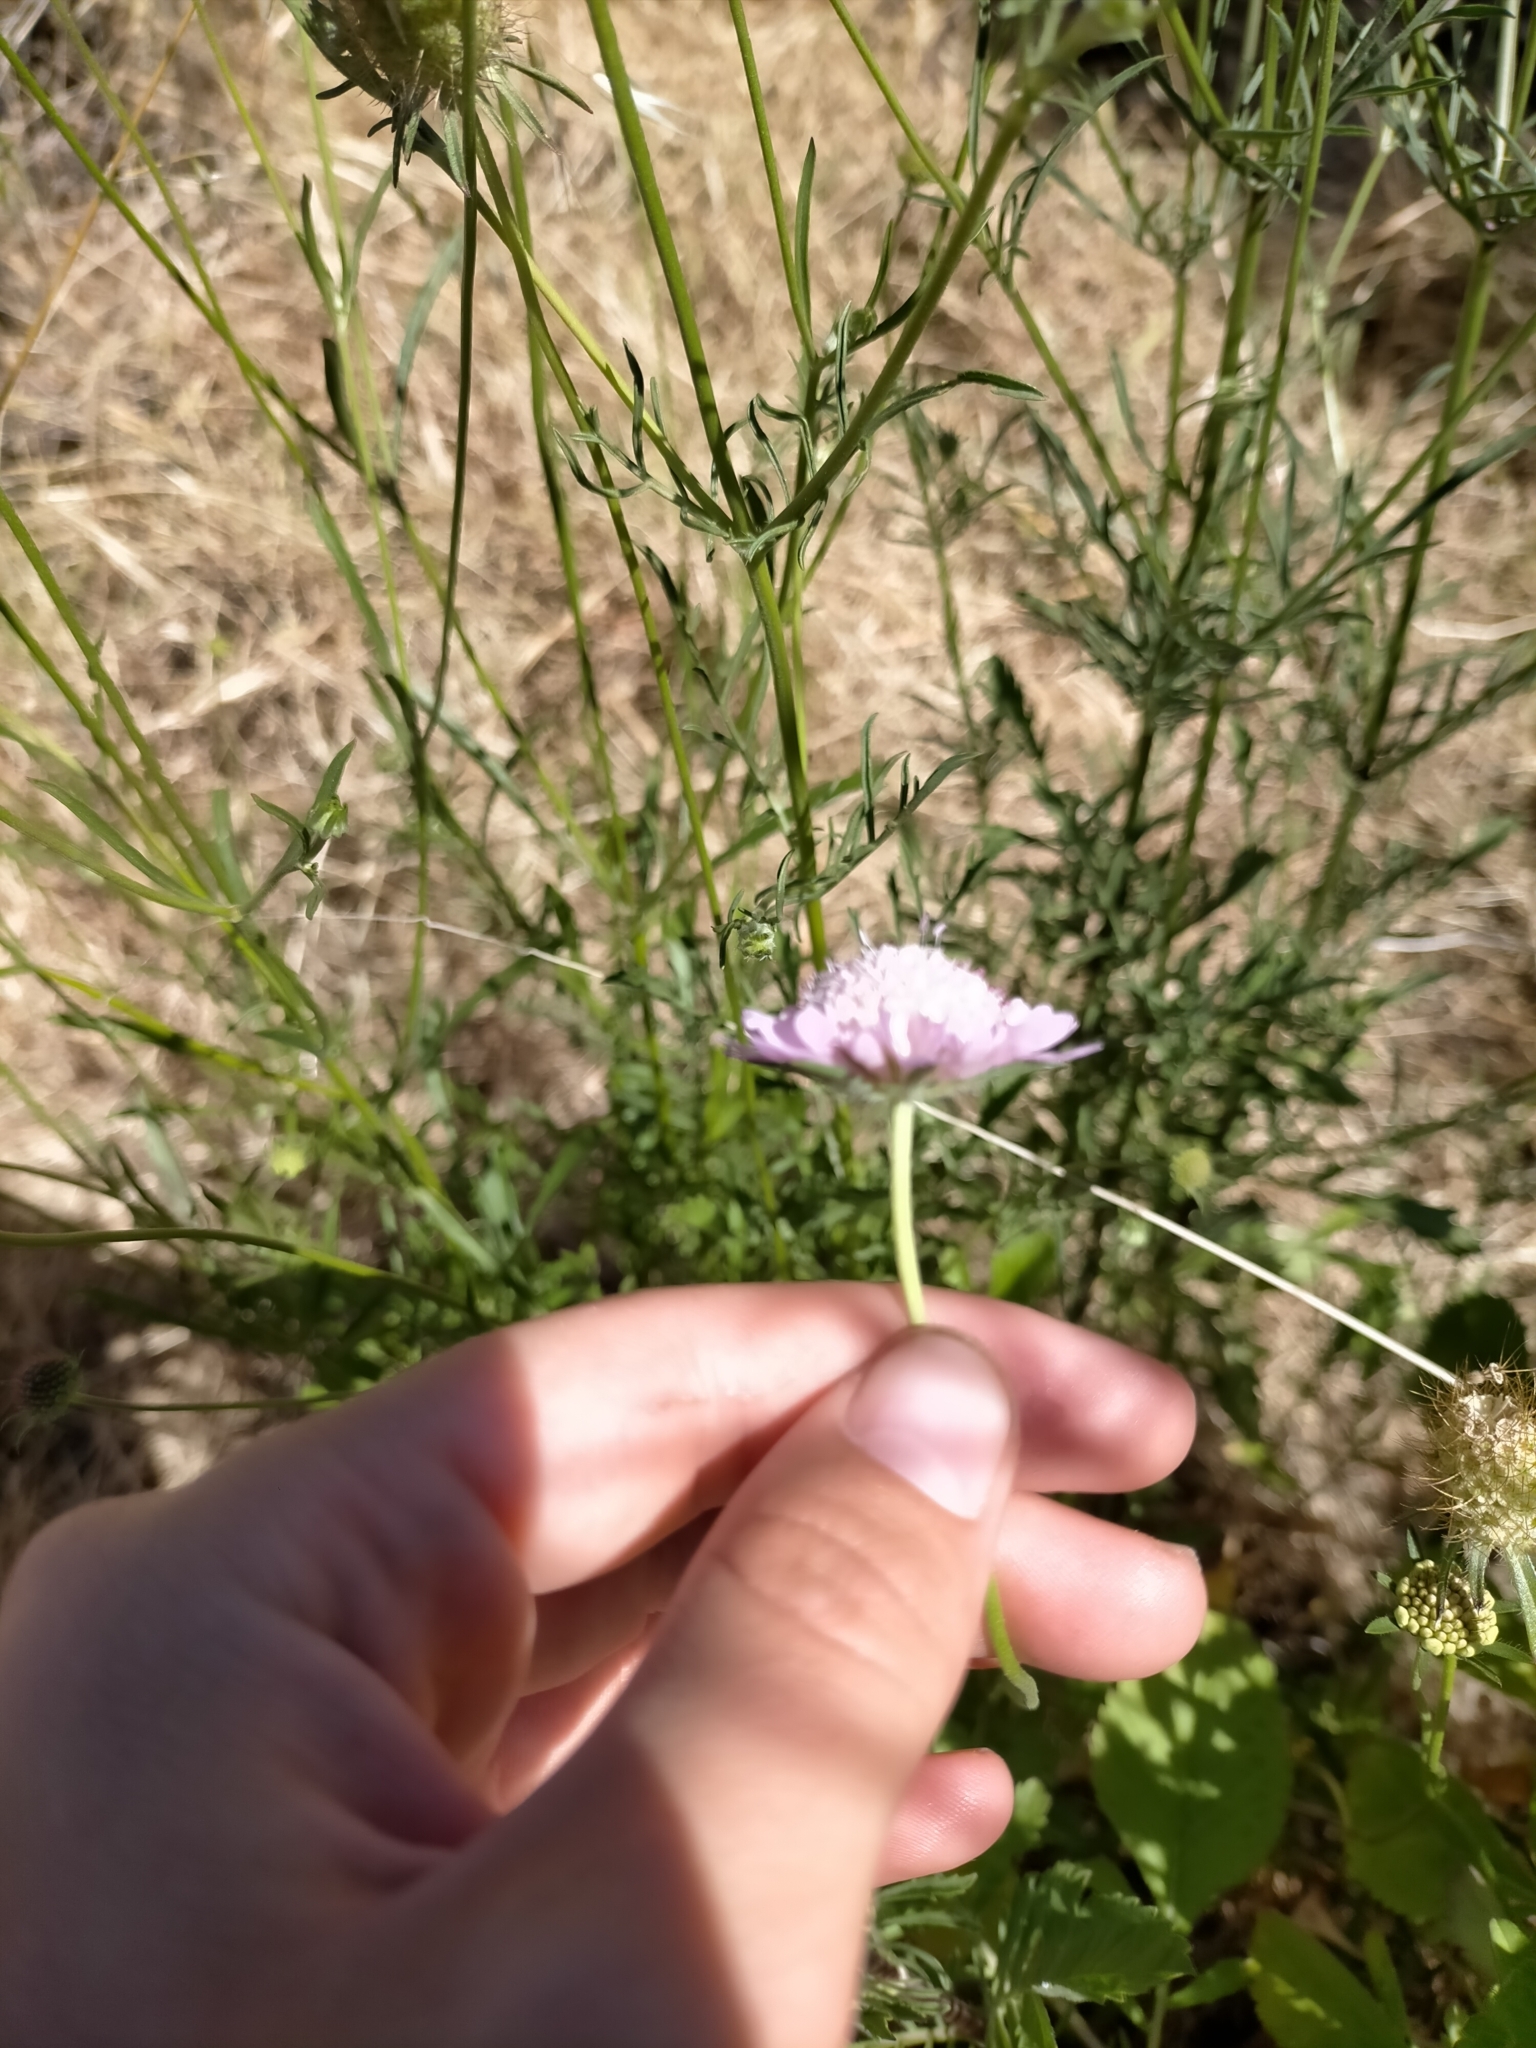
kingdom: Plantae
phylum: Tracheophyta
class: Magnoliopsida
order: Dipsacales
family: Caprifoliaceae
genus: Sixalix
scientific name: Sixalix atropurpurea
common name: Sweet scabious
